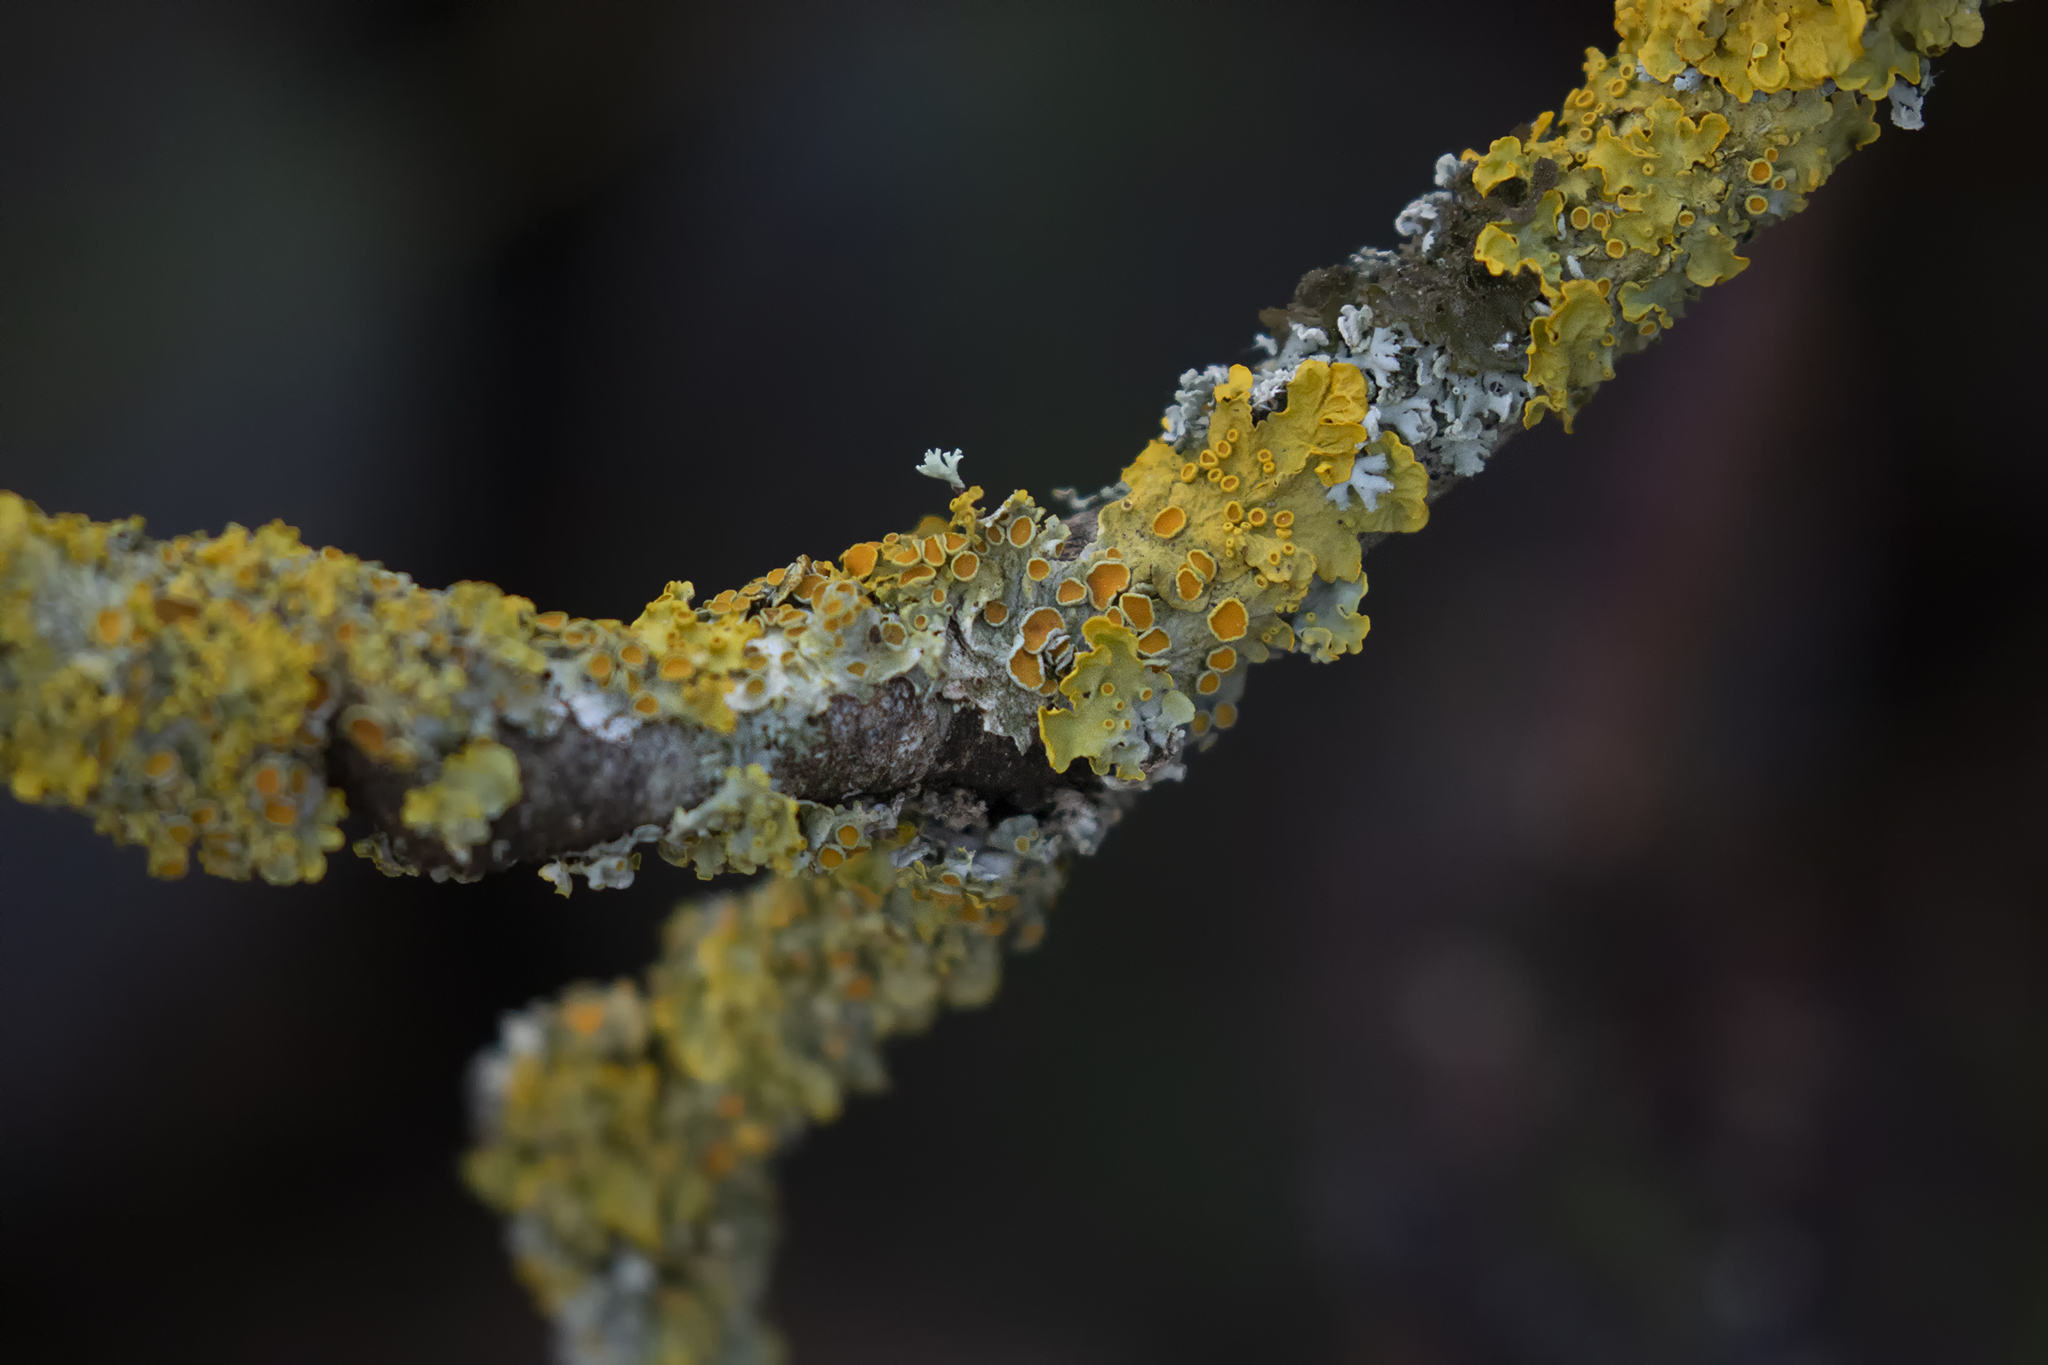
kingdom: Fungi
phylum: Ascomycota
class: Lecanoromycetes
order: Teloschistales
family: Teloschistaceae
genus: Xanthoria
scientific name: Xanthoria parietina
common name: Common orange lichen
